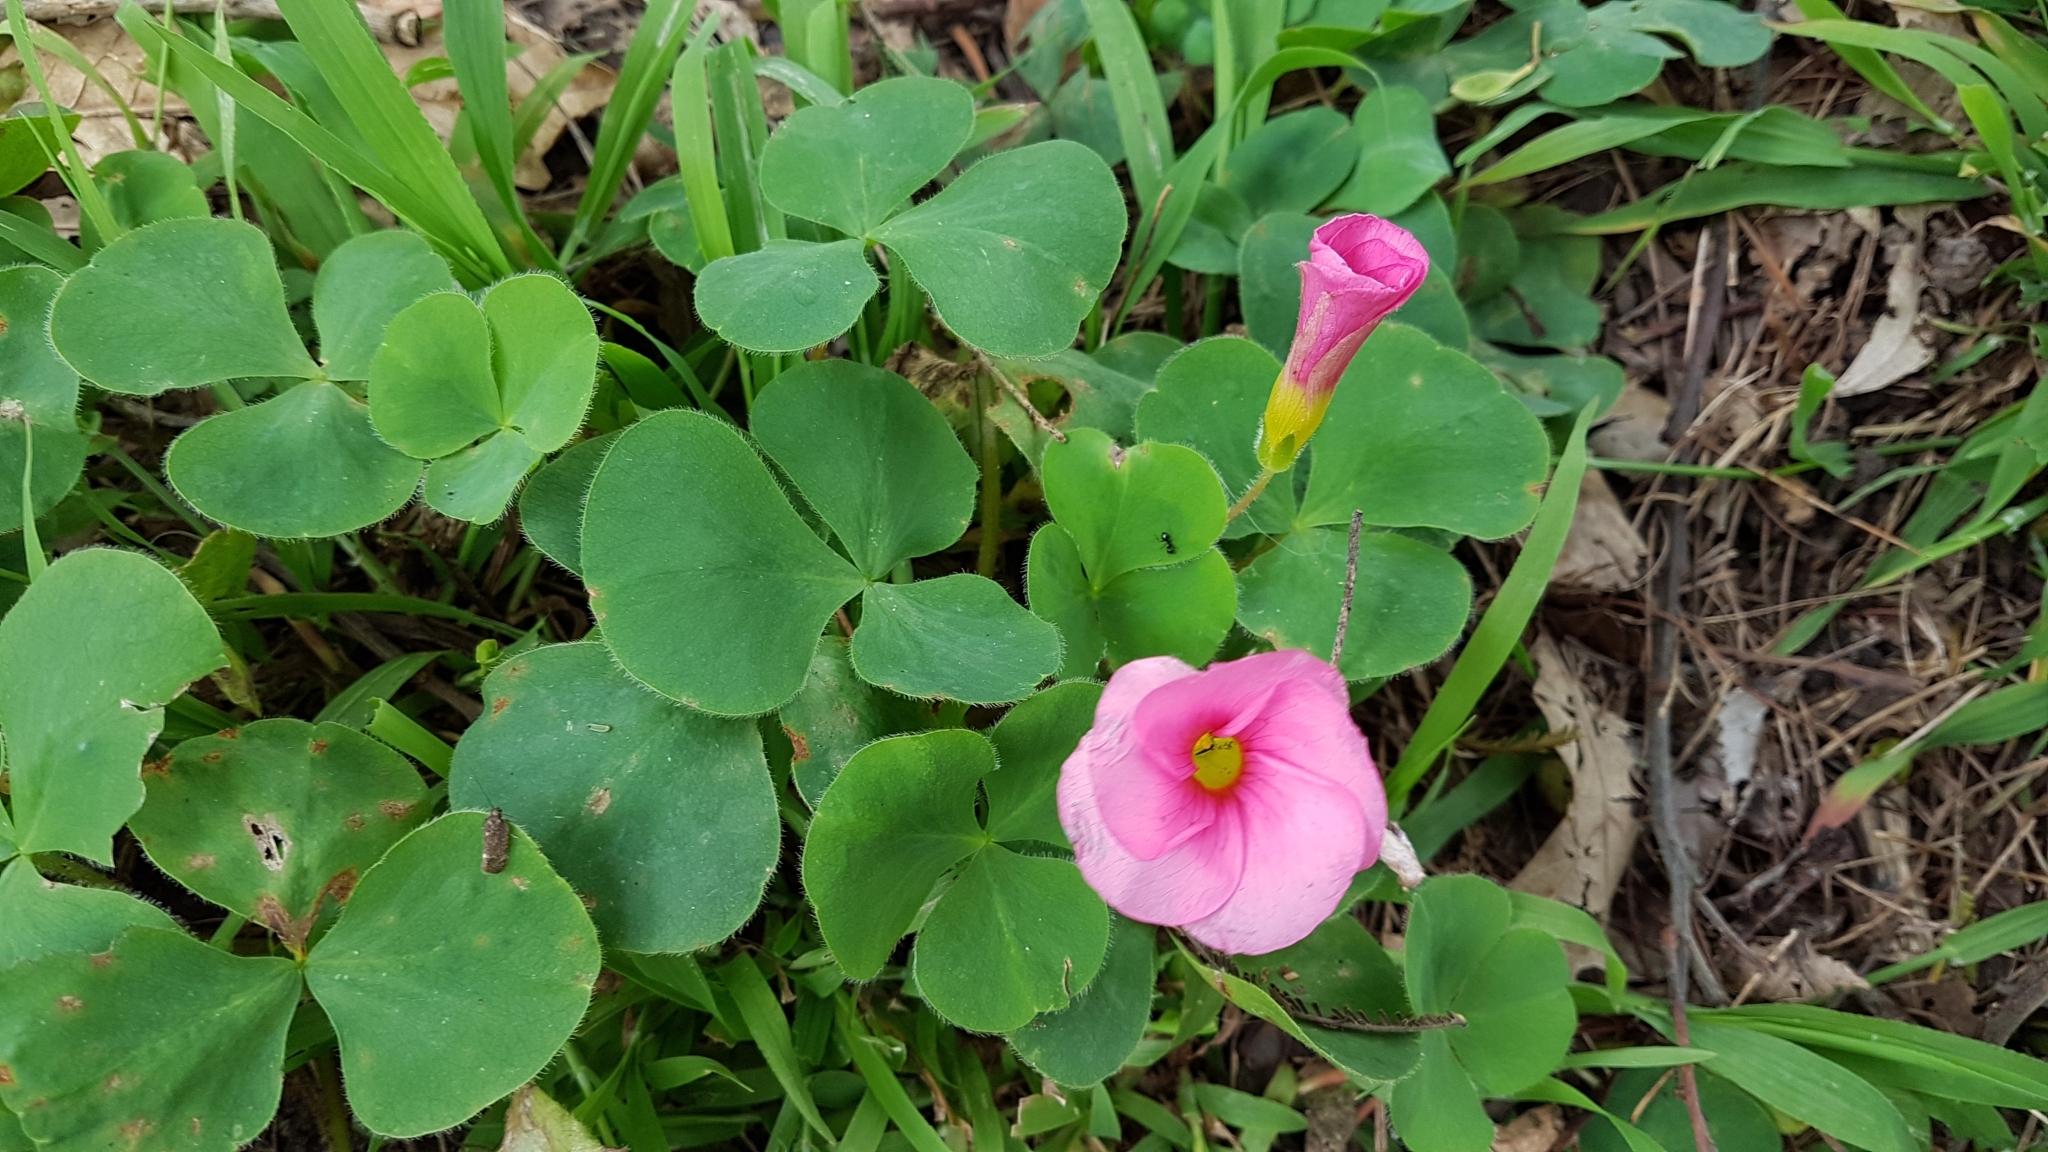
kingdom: Plantae
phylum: Tracheophyta
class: Magnoliopsida
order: Oxalidales
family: Oxalidaceae
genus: Oxalis
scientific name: Oxalis purpurea
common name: Purple woodsorrel
